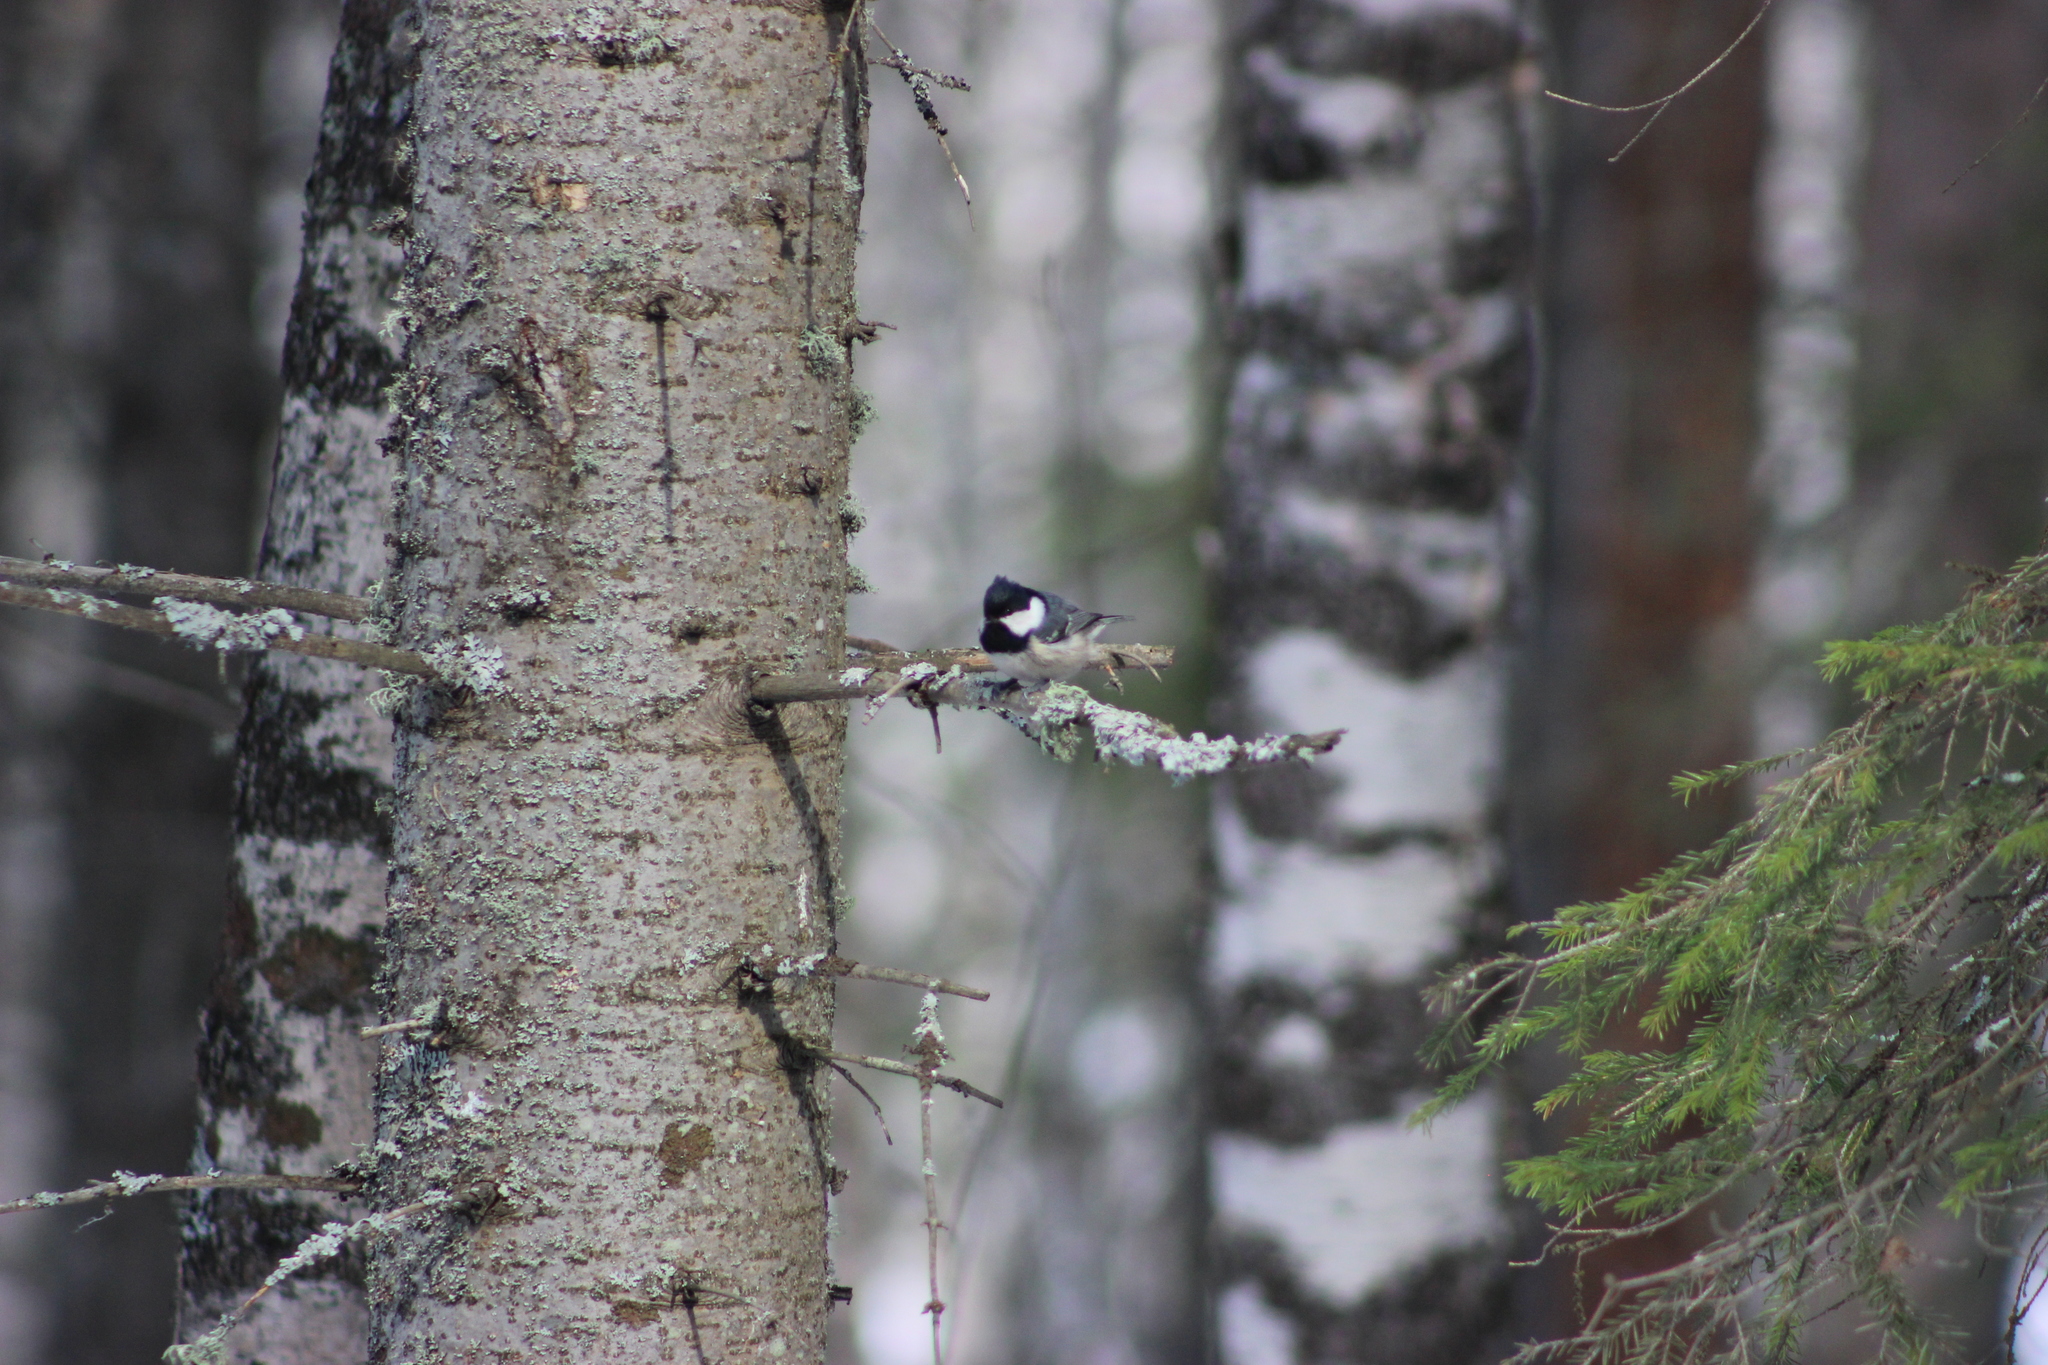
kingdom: Animalia
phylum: Chordata
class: Aves
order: Passeriformes
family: Paridae
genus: Periparus
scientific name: Periparus ater
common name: Coal tit
